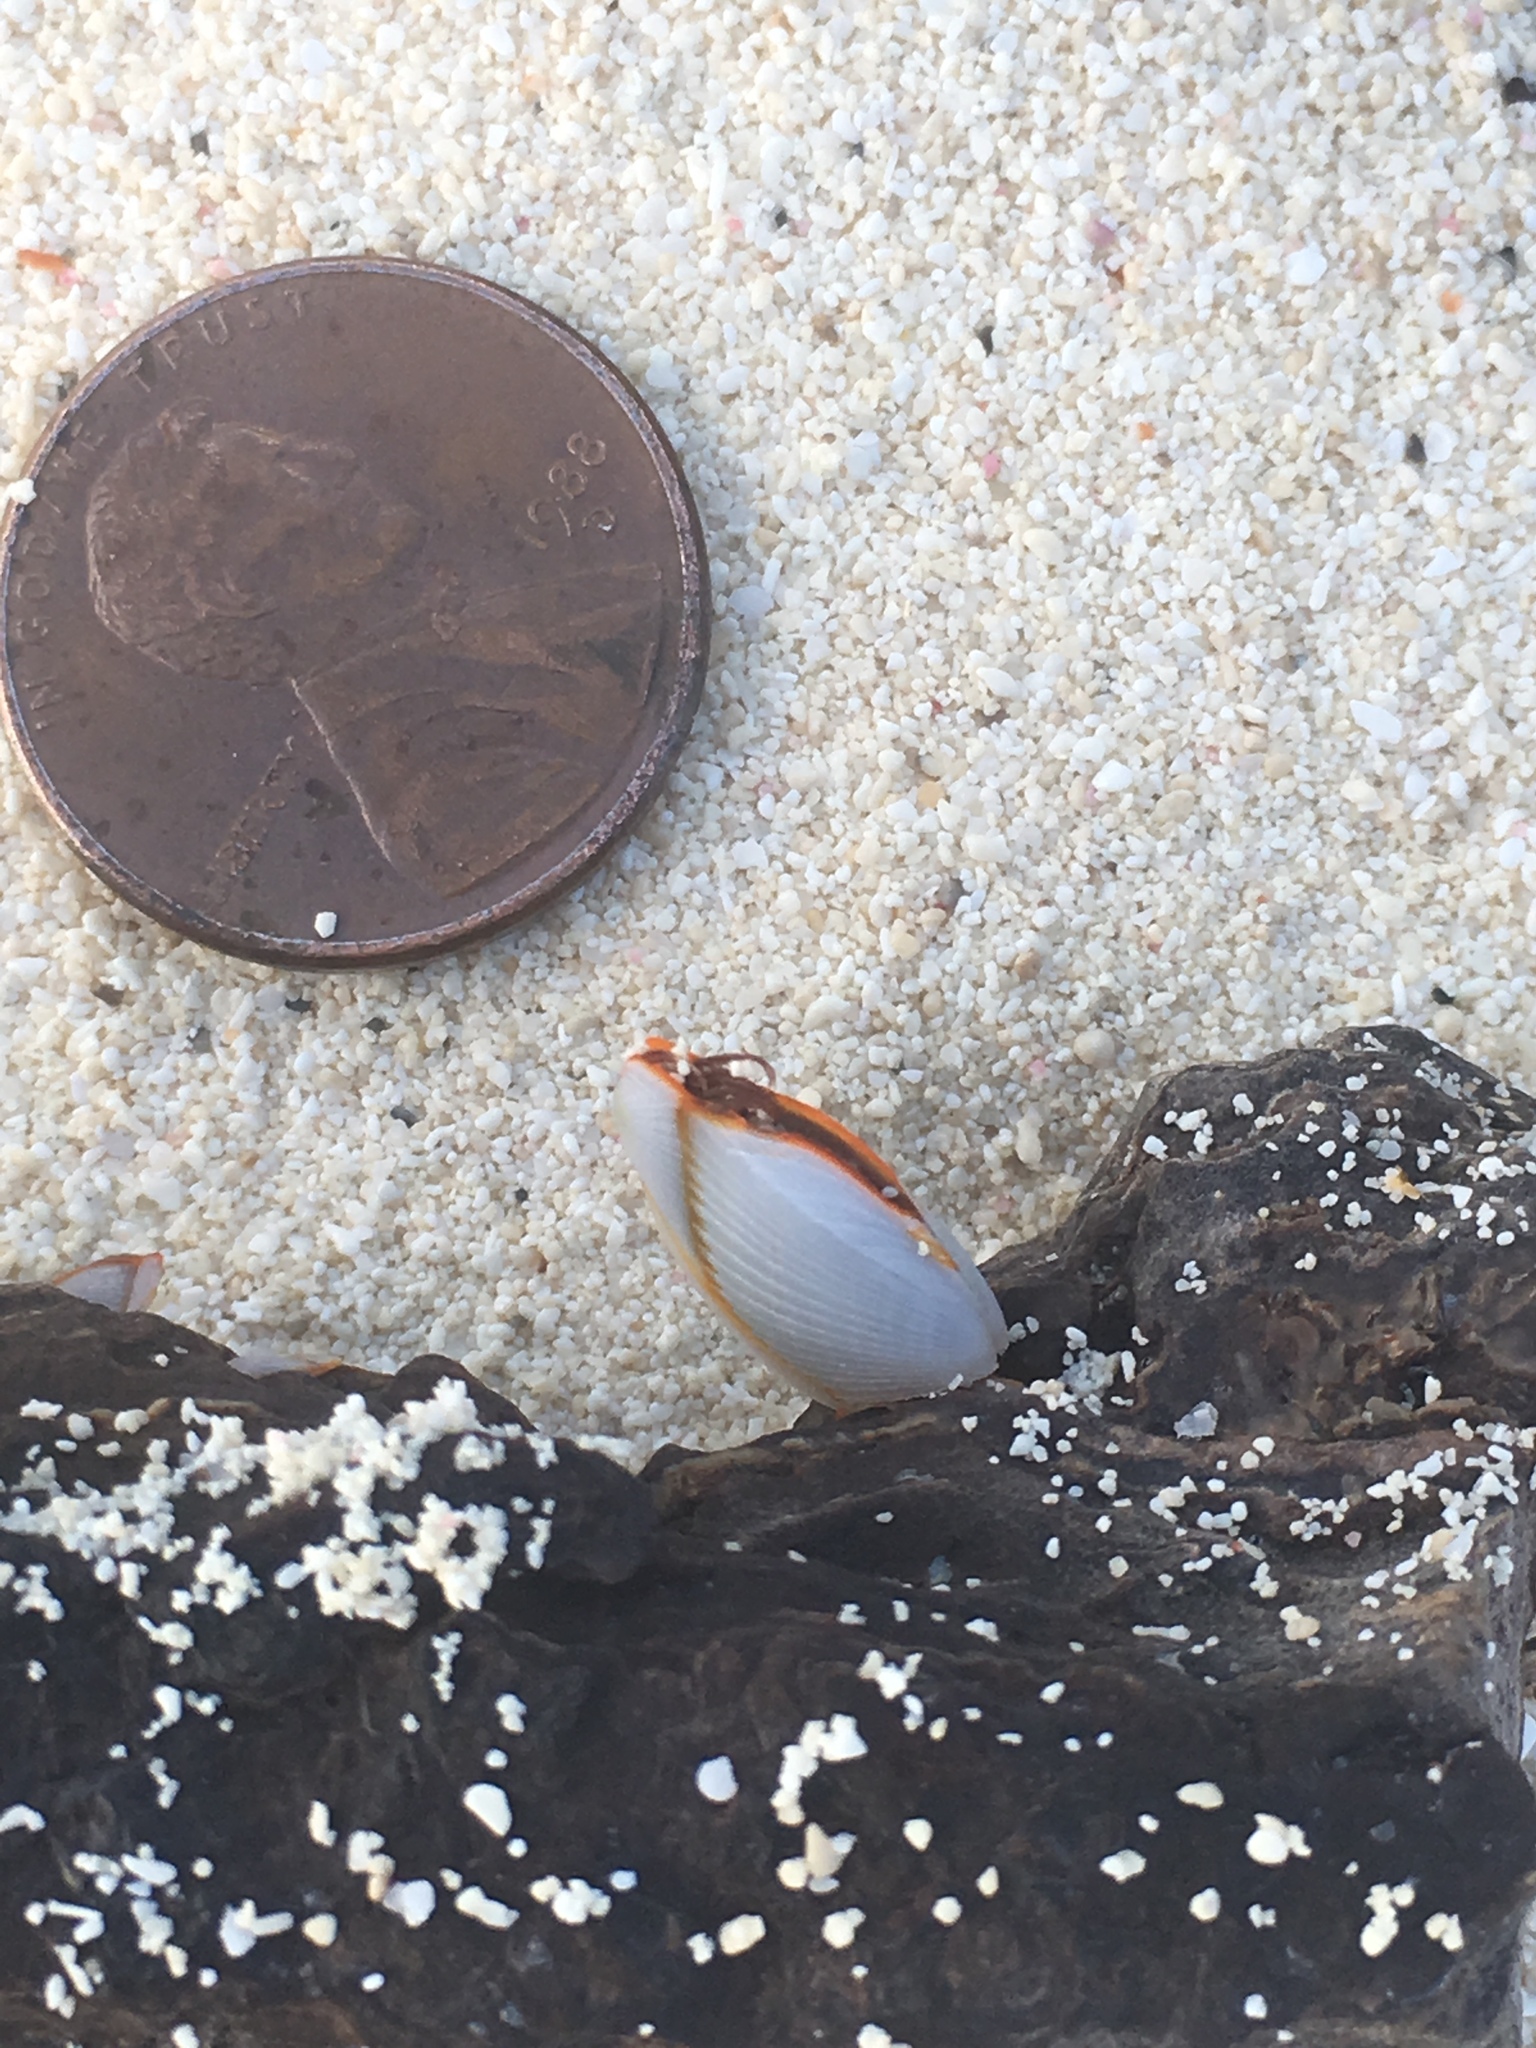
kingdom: Animalia
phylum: Arthropoda
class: Maxillopoda
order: Pedunculata
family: Lepadidae
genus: Lepas
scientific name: Lepas anserifera
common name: Goose barnacle
